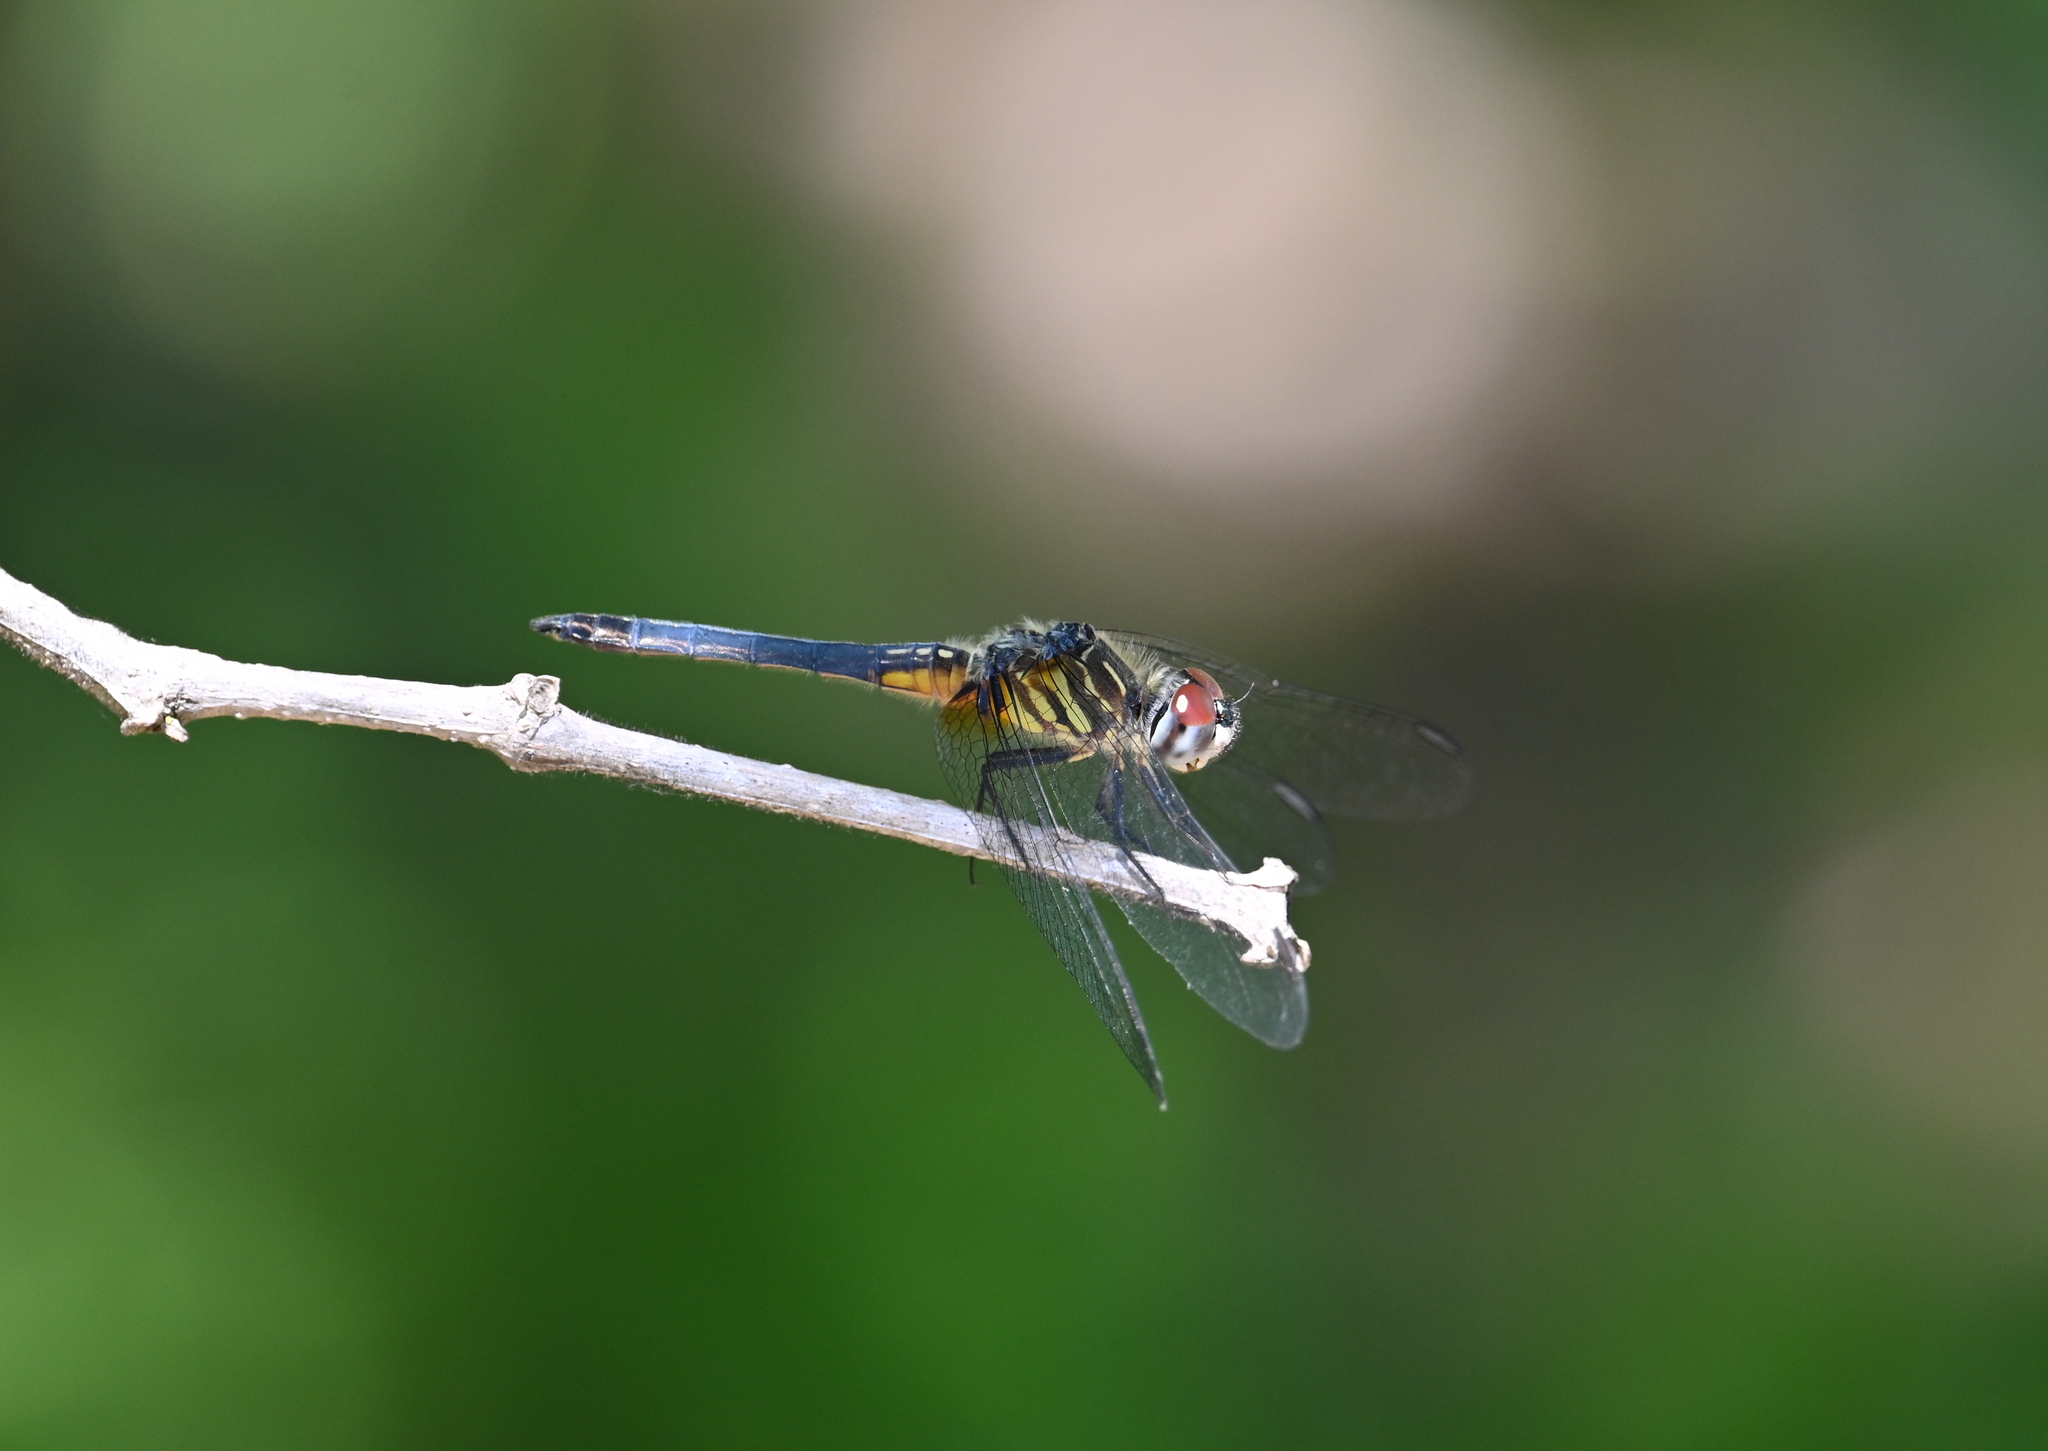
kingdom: Animalia
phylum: Arthropoda
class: Insecta
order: Odonata
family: Libellulidae
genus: Pachydiplax
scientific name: Pachydiplax longipennis
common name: Blue dasher
